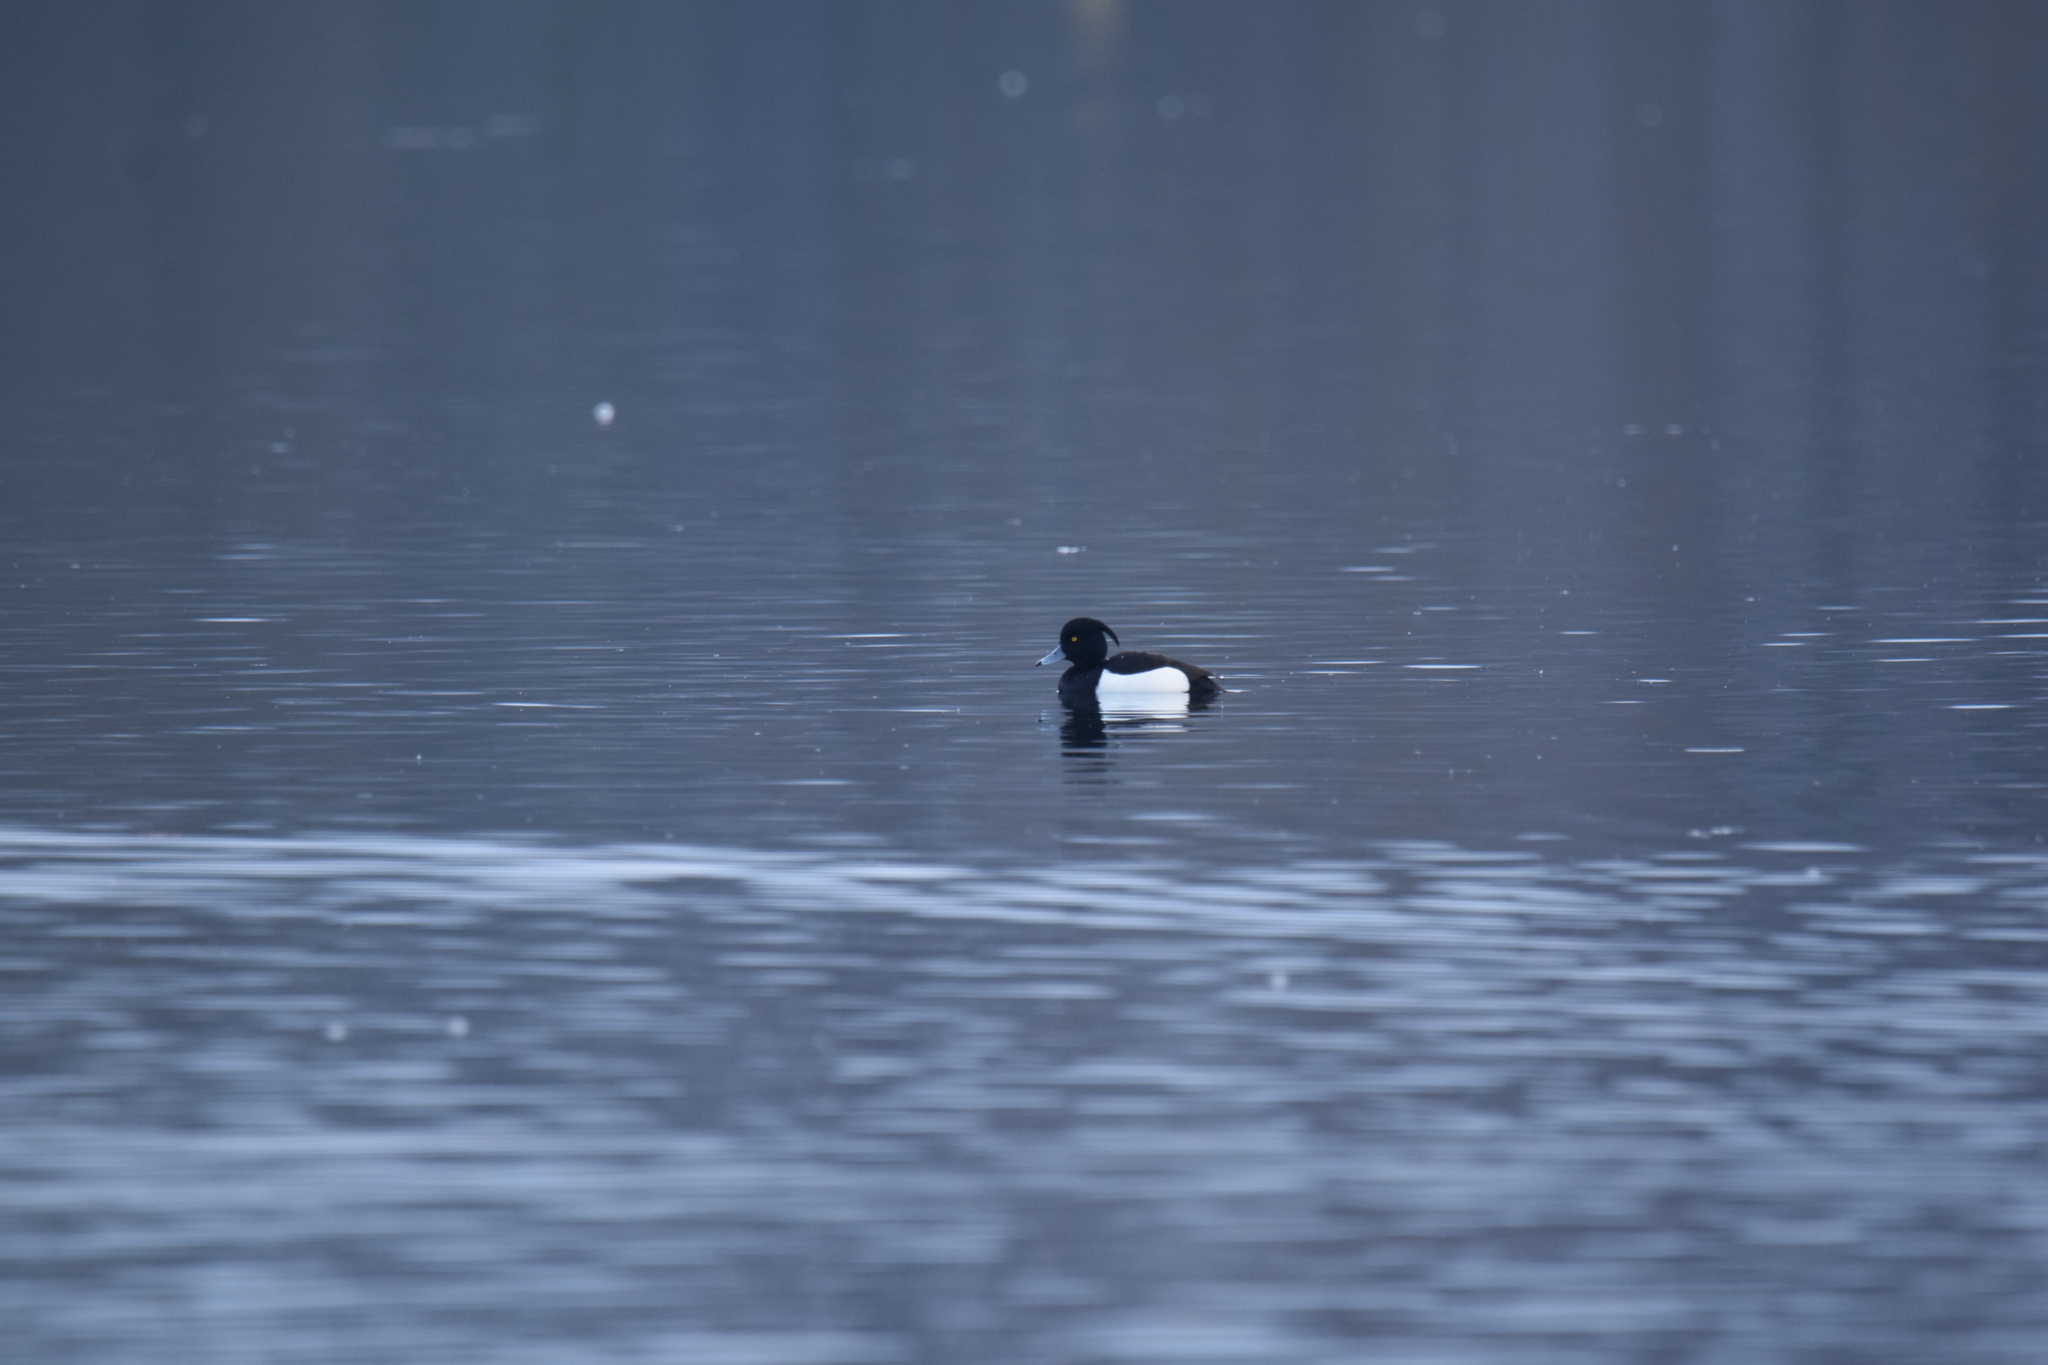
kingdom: Animalia
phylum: Chordata
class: Aves
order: Anseriformes
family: Anatidae
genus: Aythya
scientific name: Aythya fuligula
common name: Tufted duck
